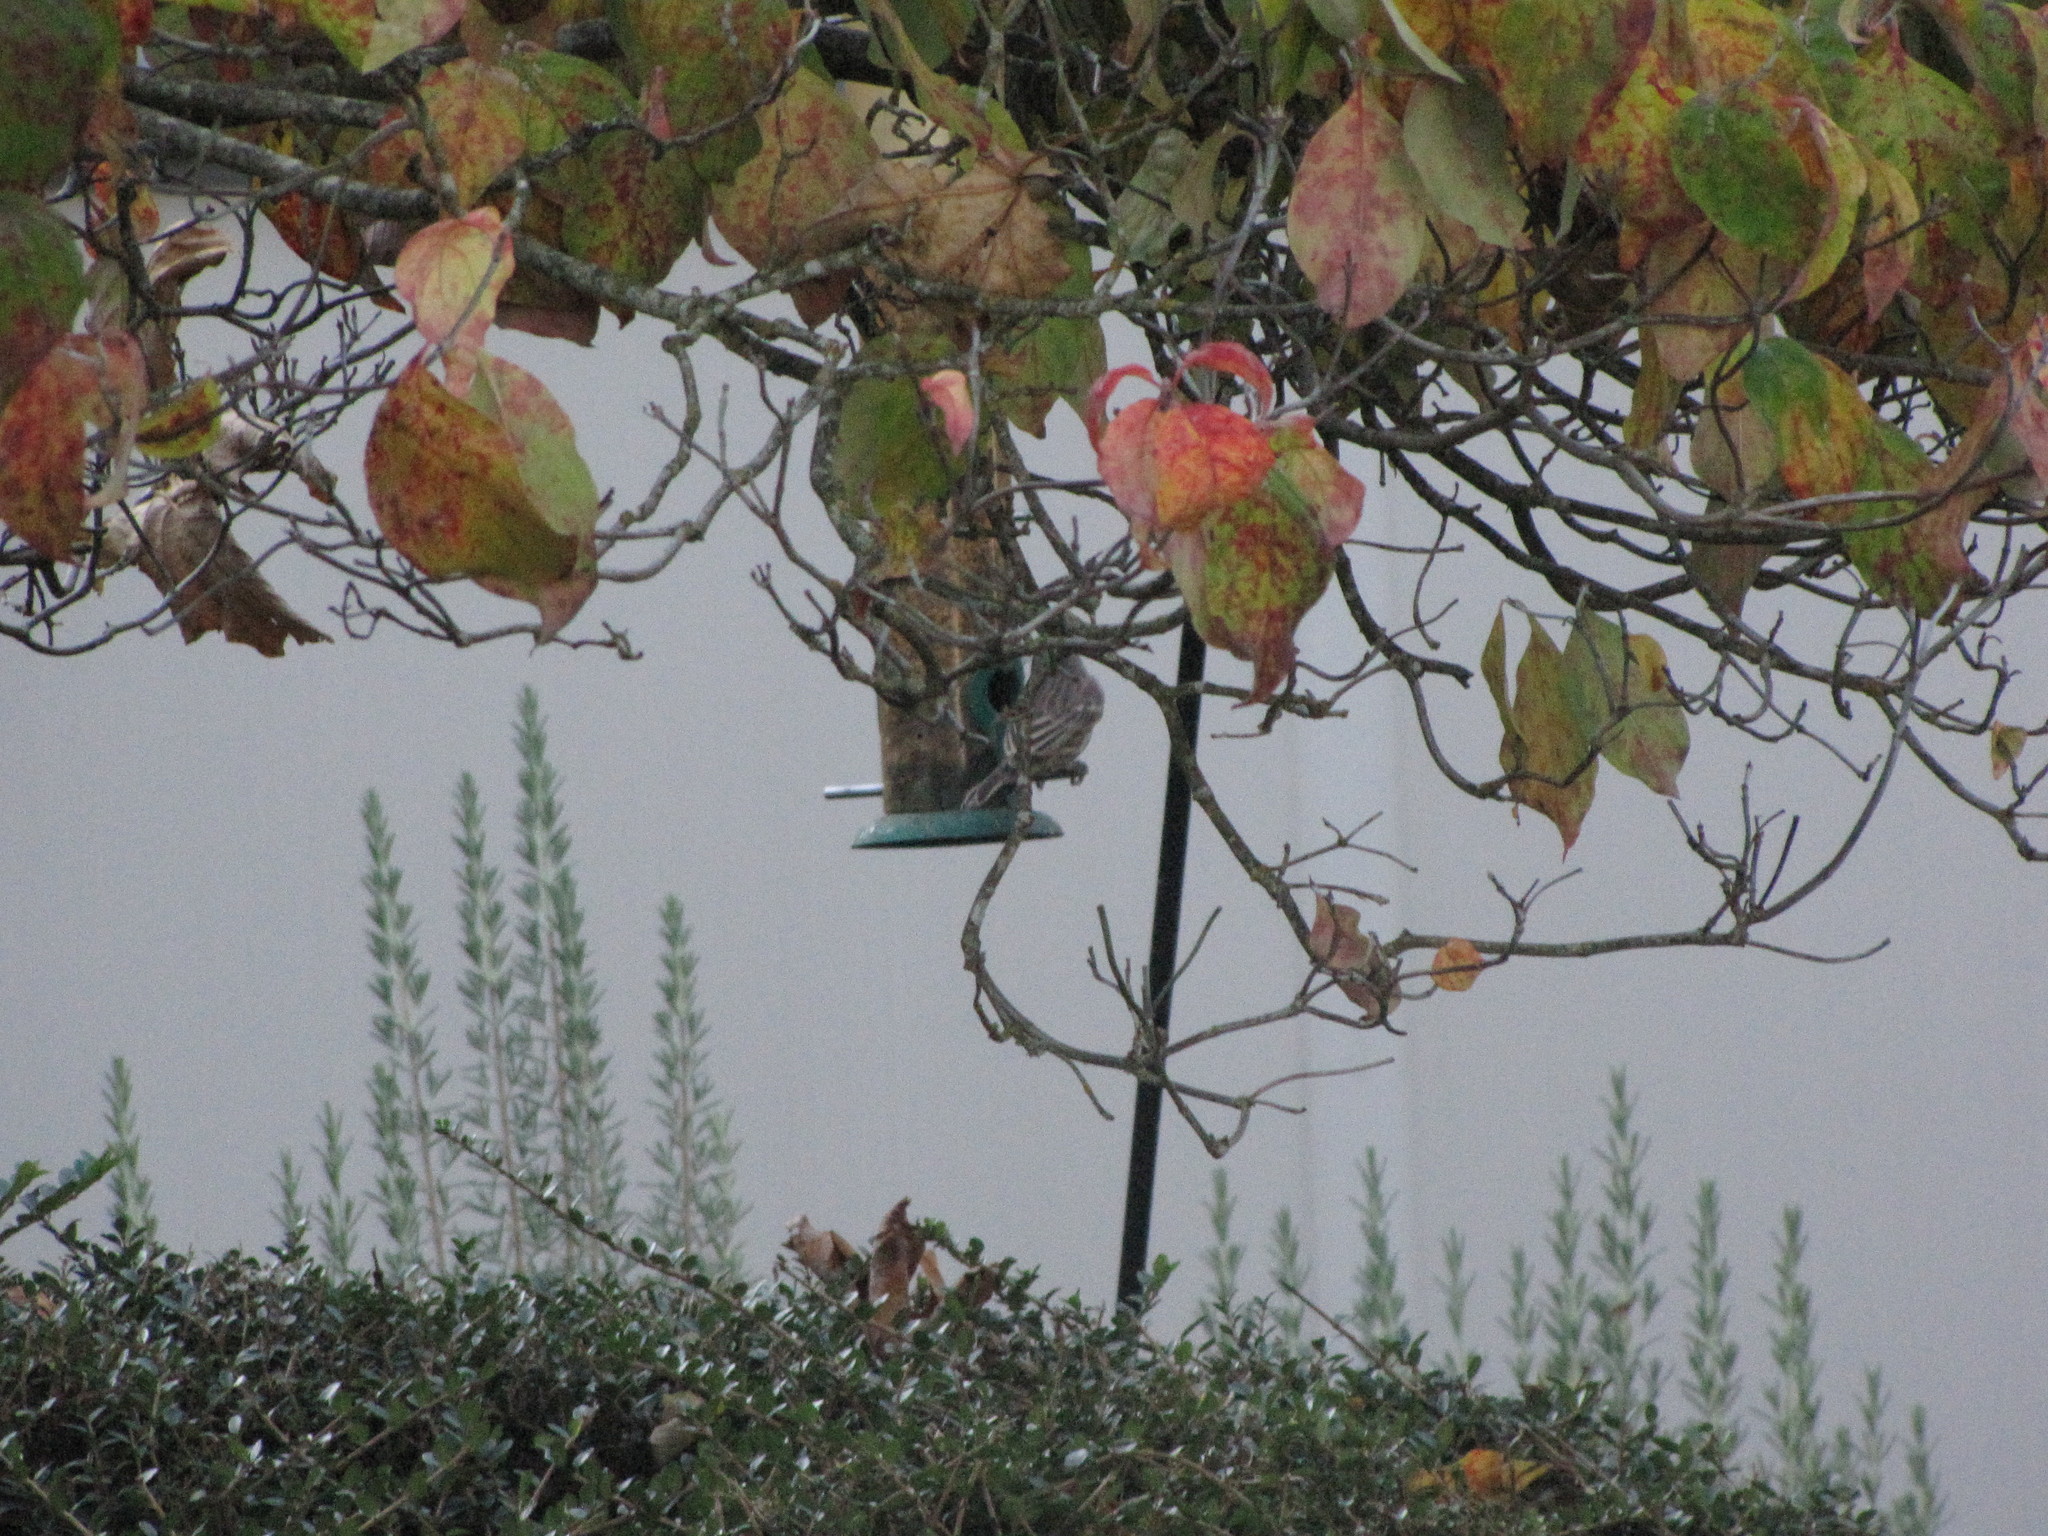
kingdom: Animalia
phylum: Chordata
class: Aves
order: Passeriformes
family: Fringillidae
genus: Haemorhous
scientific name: Haemorhous mexicanus
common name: House finch
